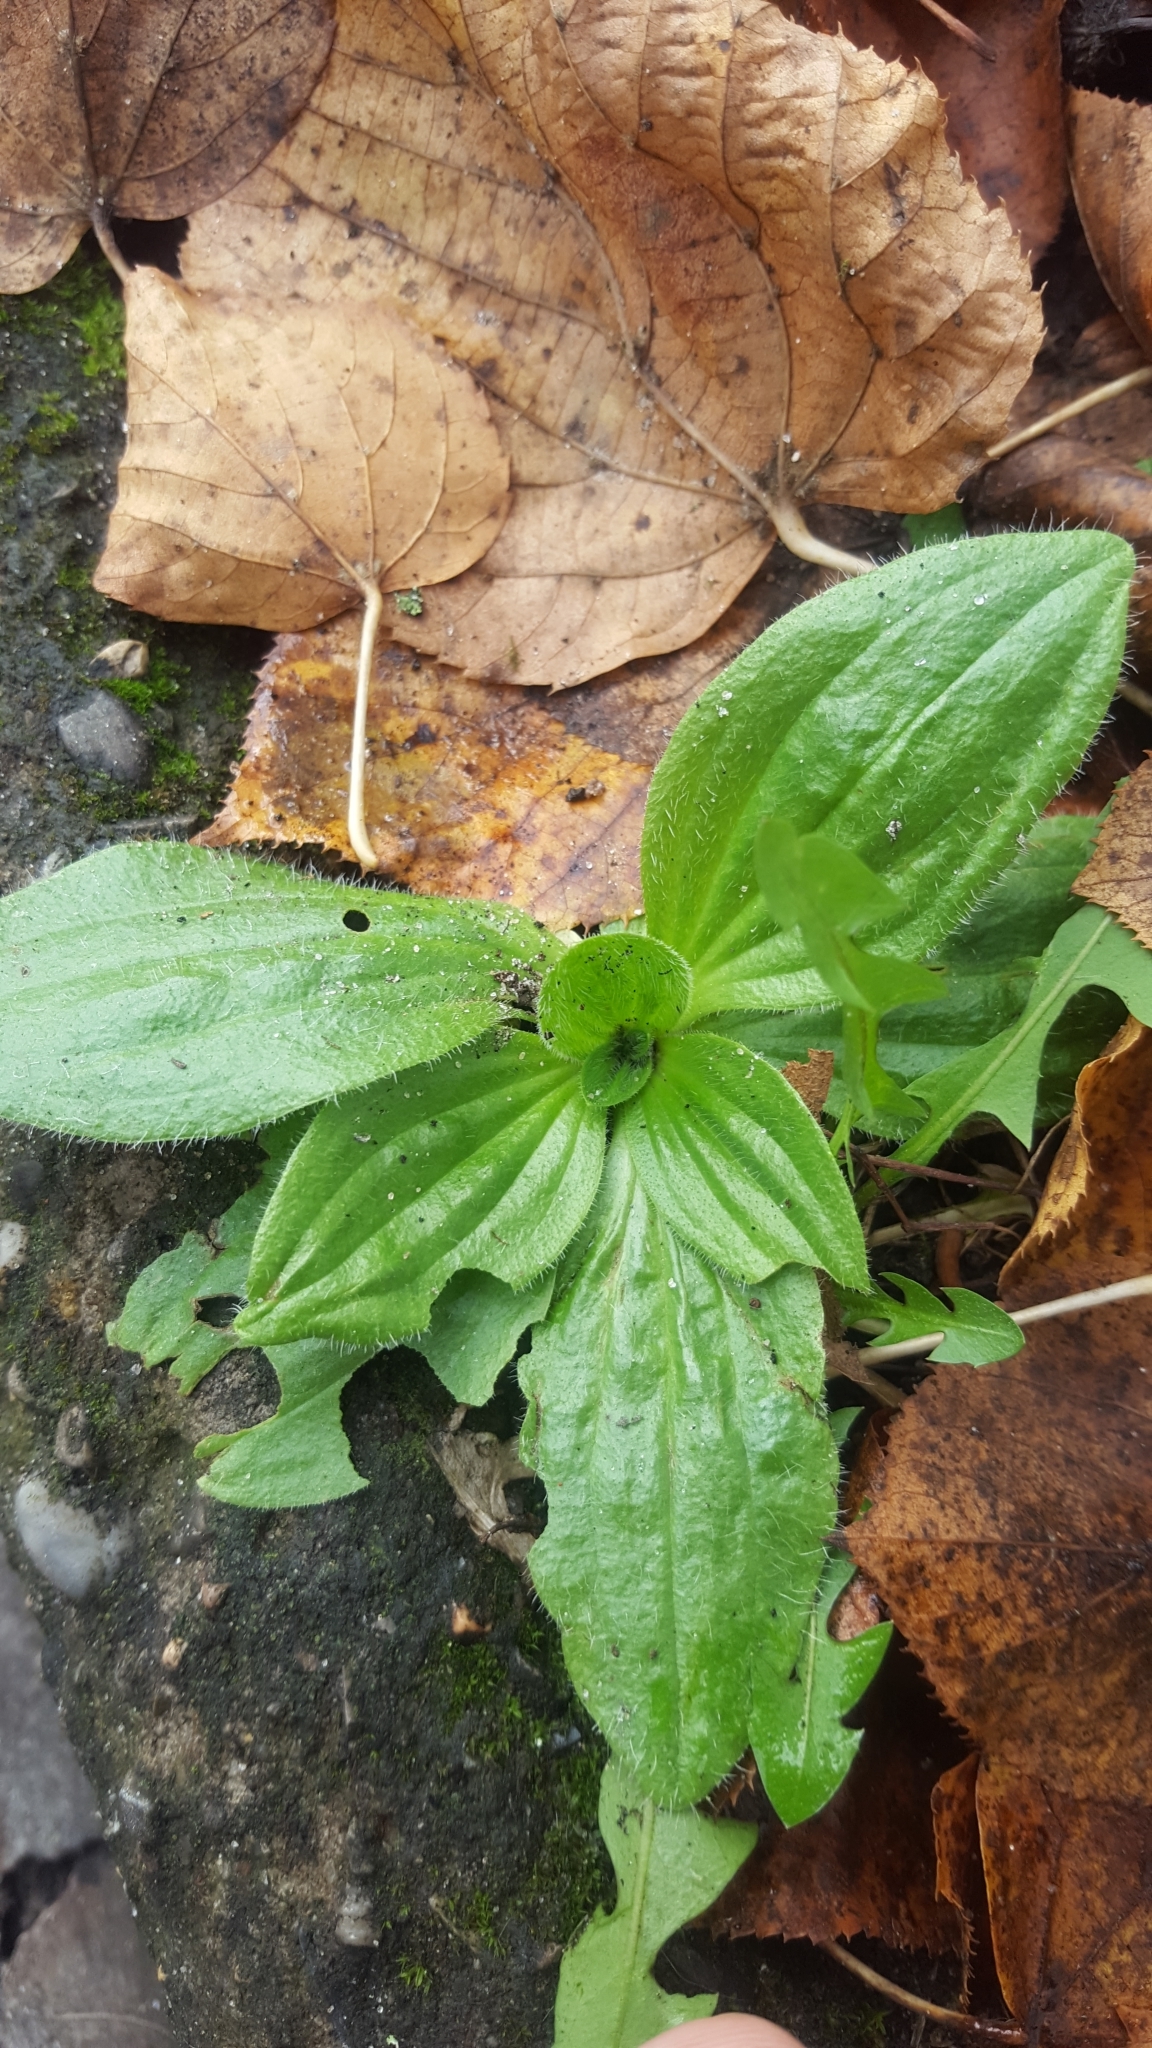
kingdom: Plantae
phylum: Tracheophyta
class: Magnoliopsida
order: Lamiales
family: Plantaginaceae
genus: Plantago
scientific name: Plantago media
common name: Hoary plantain
